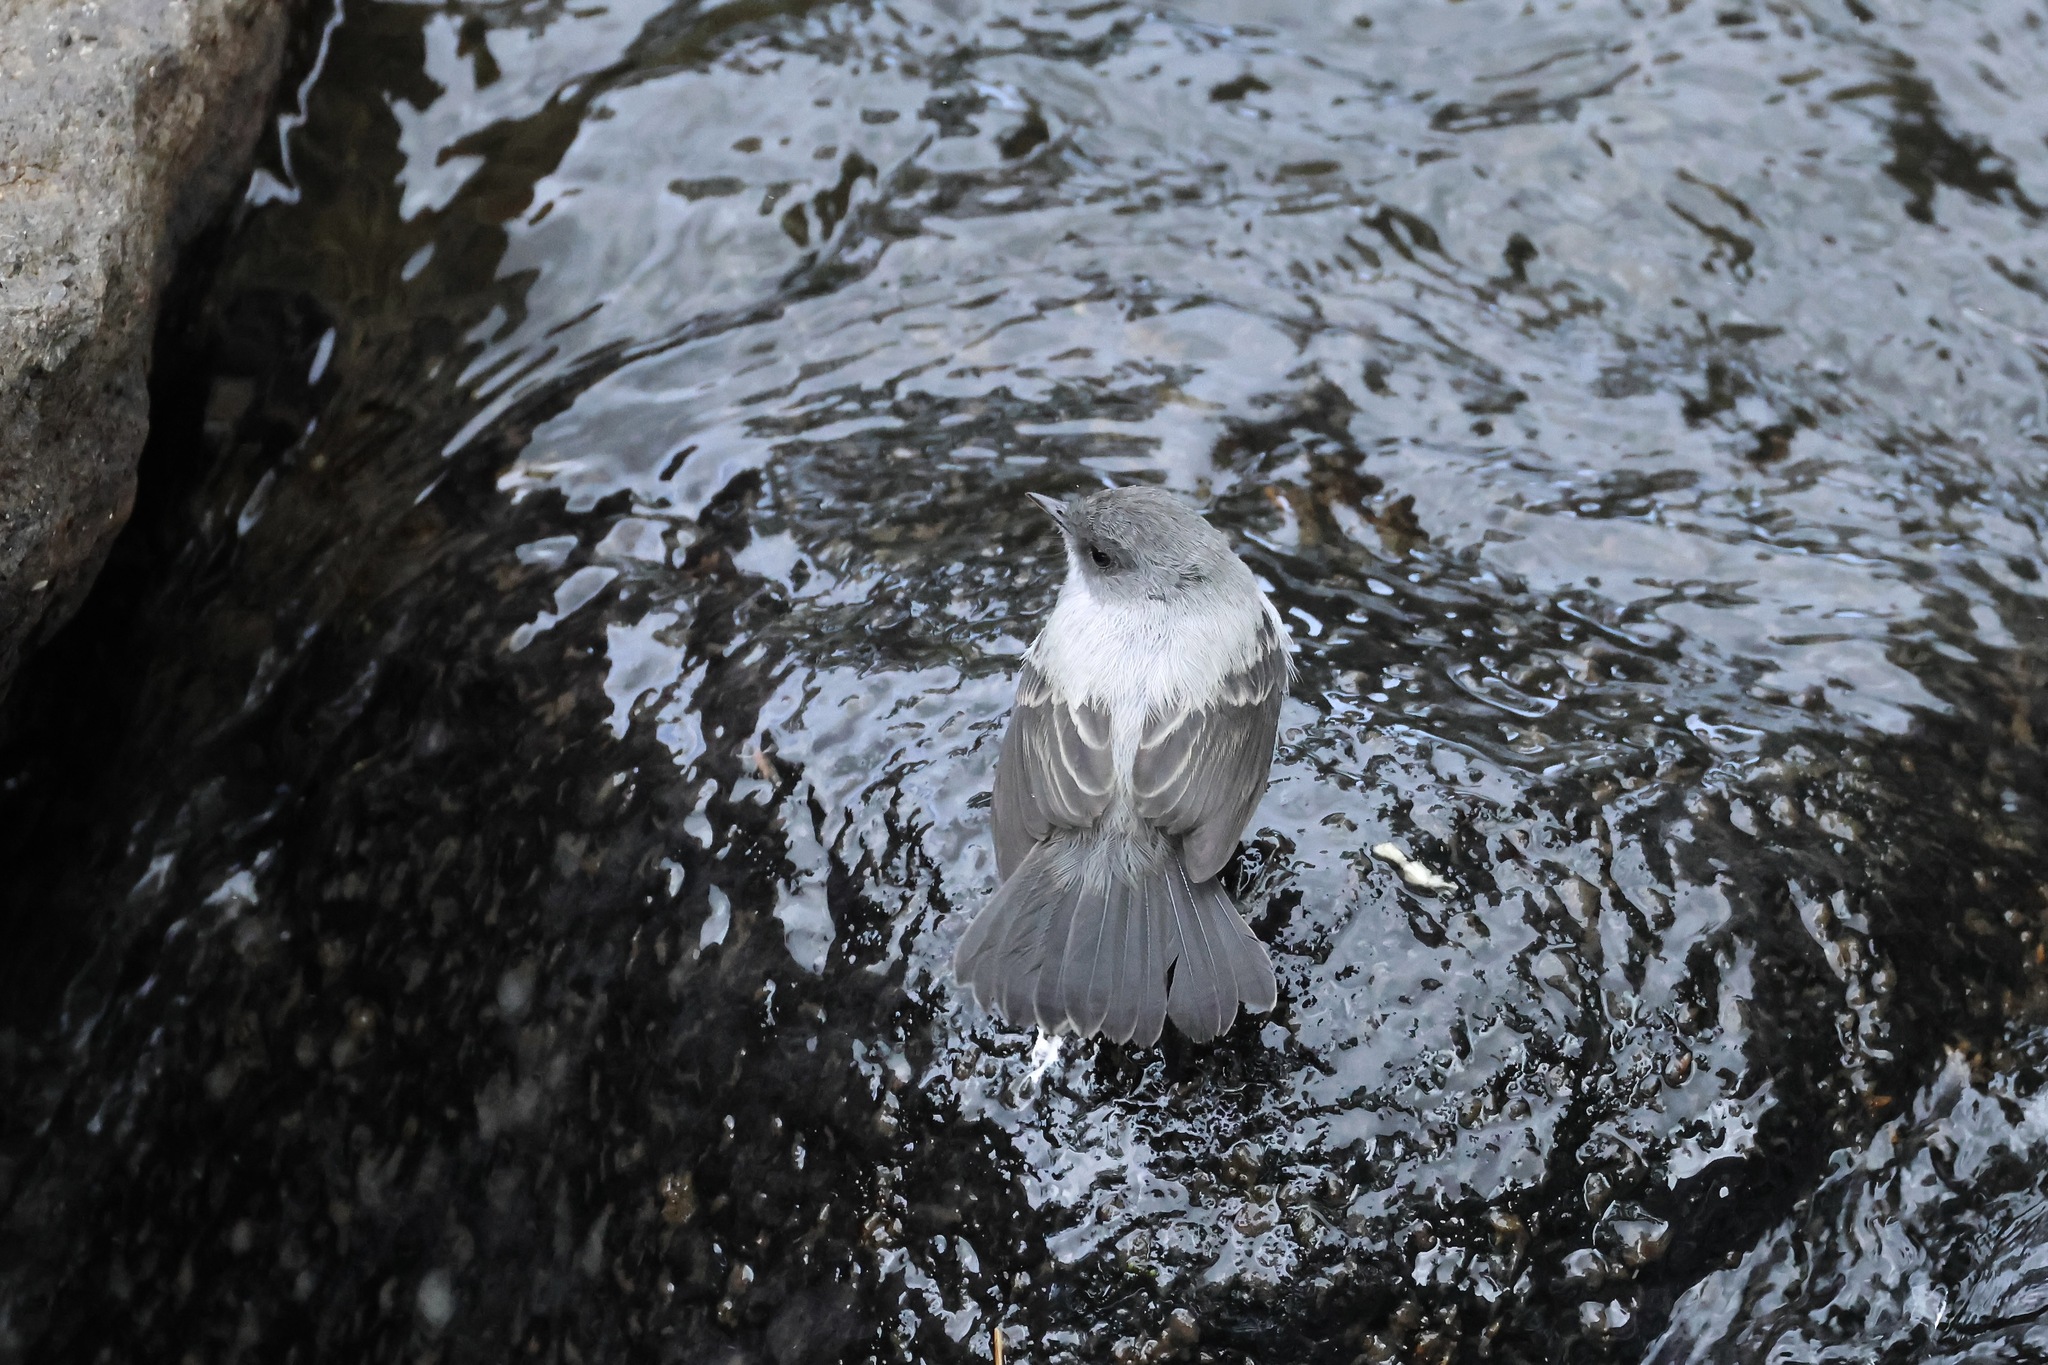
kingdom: Animalia
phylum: Chordata
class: Aves
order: Passeriformes
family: Tyrannidae
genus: Serpophaga
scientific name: Serpophaga cinerea
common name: Torrent tyrannulet
